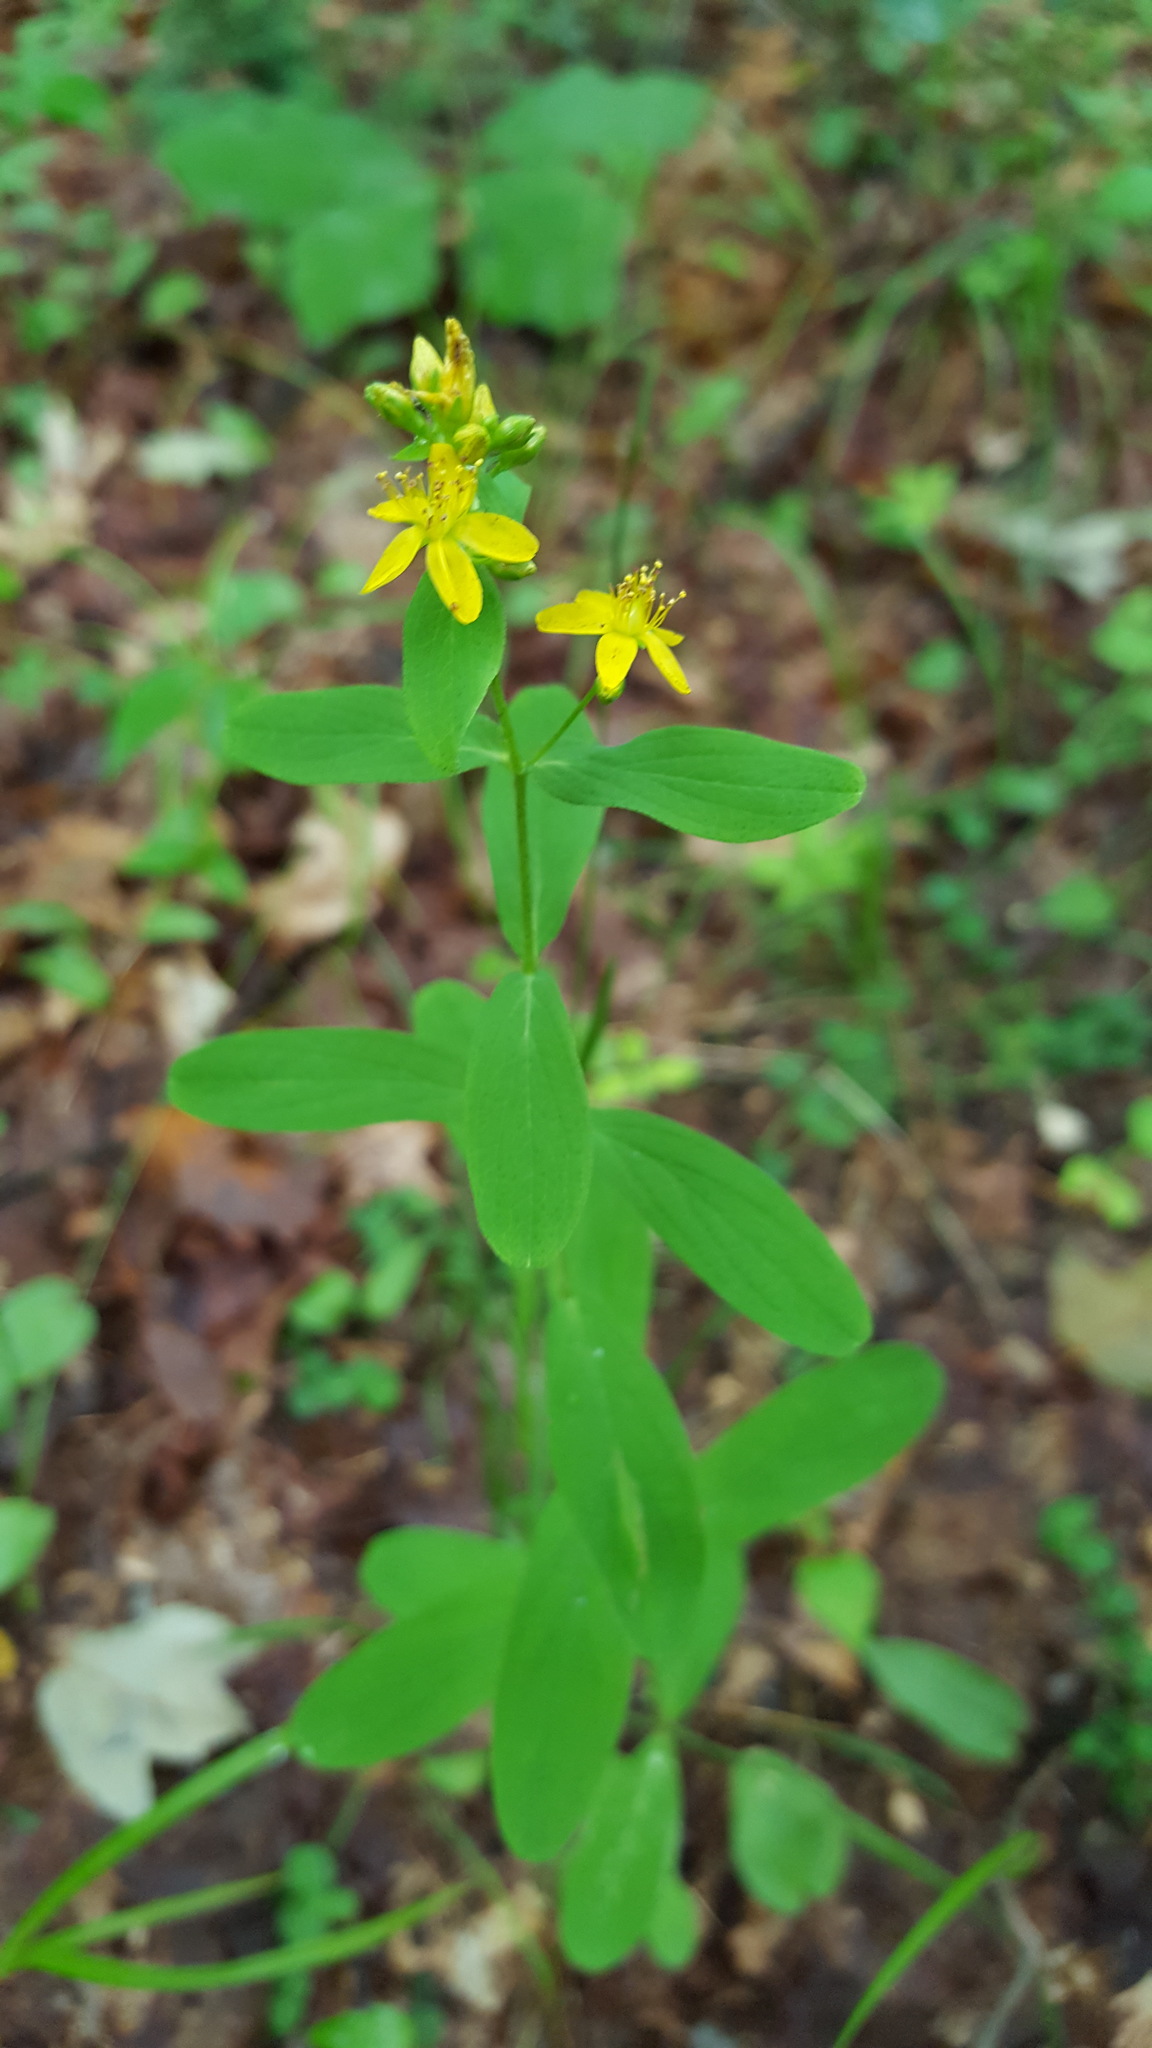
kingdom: Plantae
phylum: Tracheophyta
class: Magnoliopsida
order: Malpighiales
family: Hypericaceae
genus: Hypericum
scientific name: Hypericum punctatum
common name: Spotted st. john's-wort
